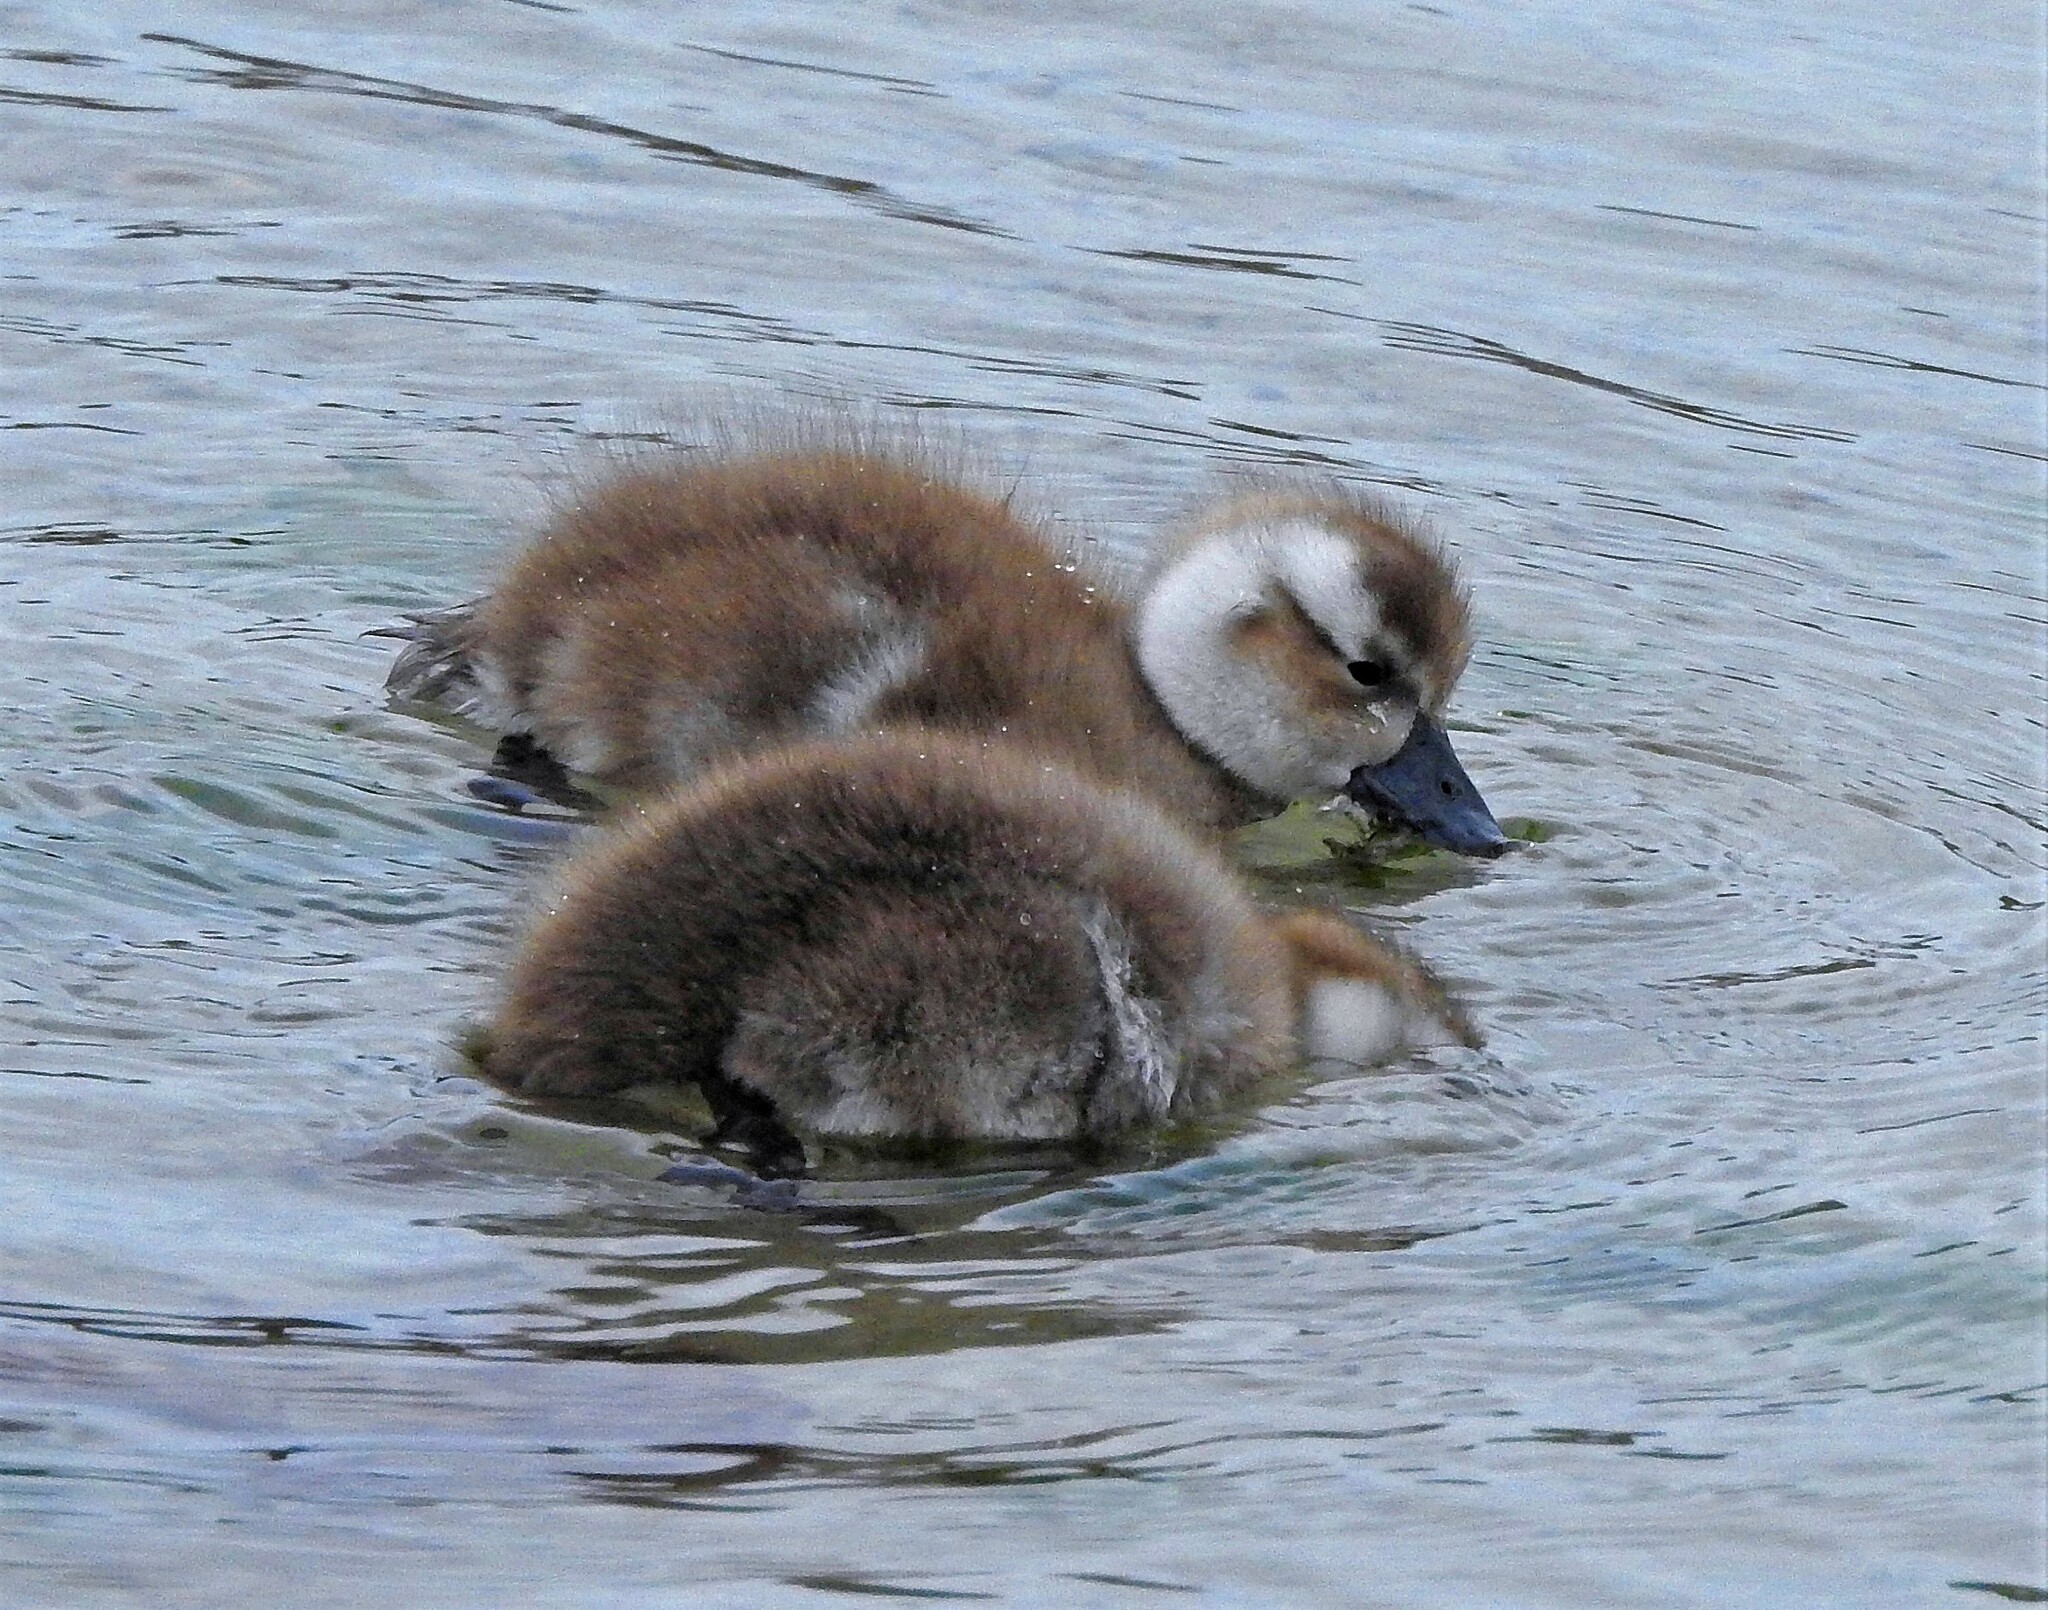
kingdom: Animalia
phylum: Chordata
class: Aves
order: Anseriformes
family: Anatidae
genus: Tachyeres
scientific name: Tachyeres brachypterus
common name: Falkland steamer duck
